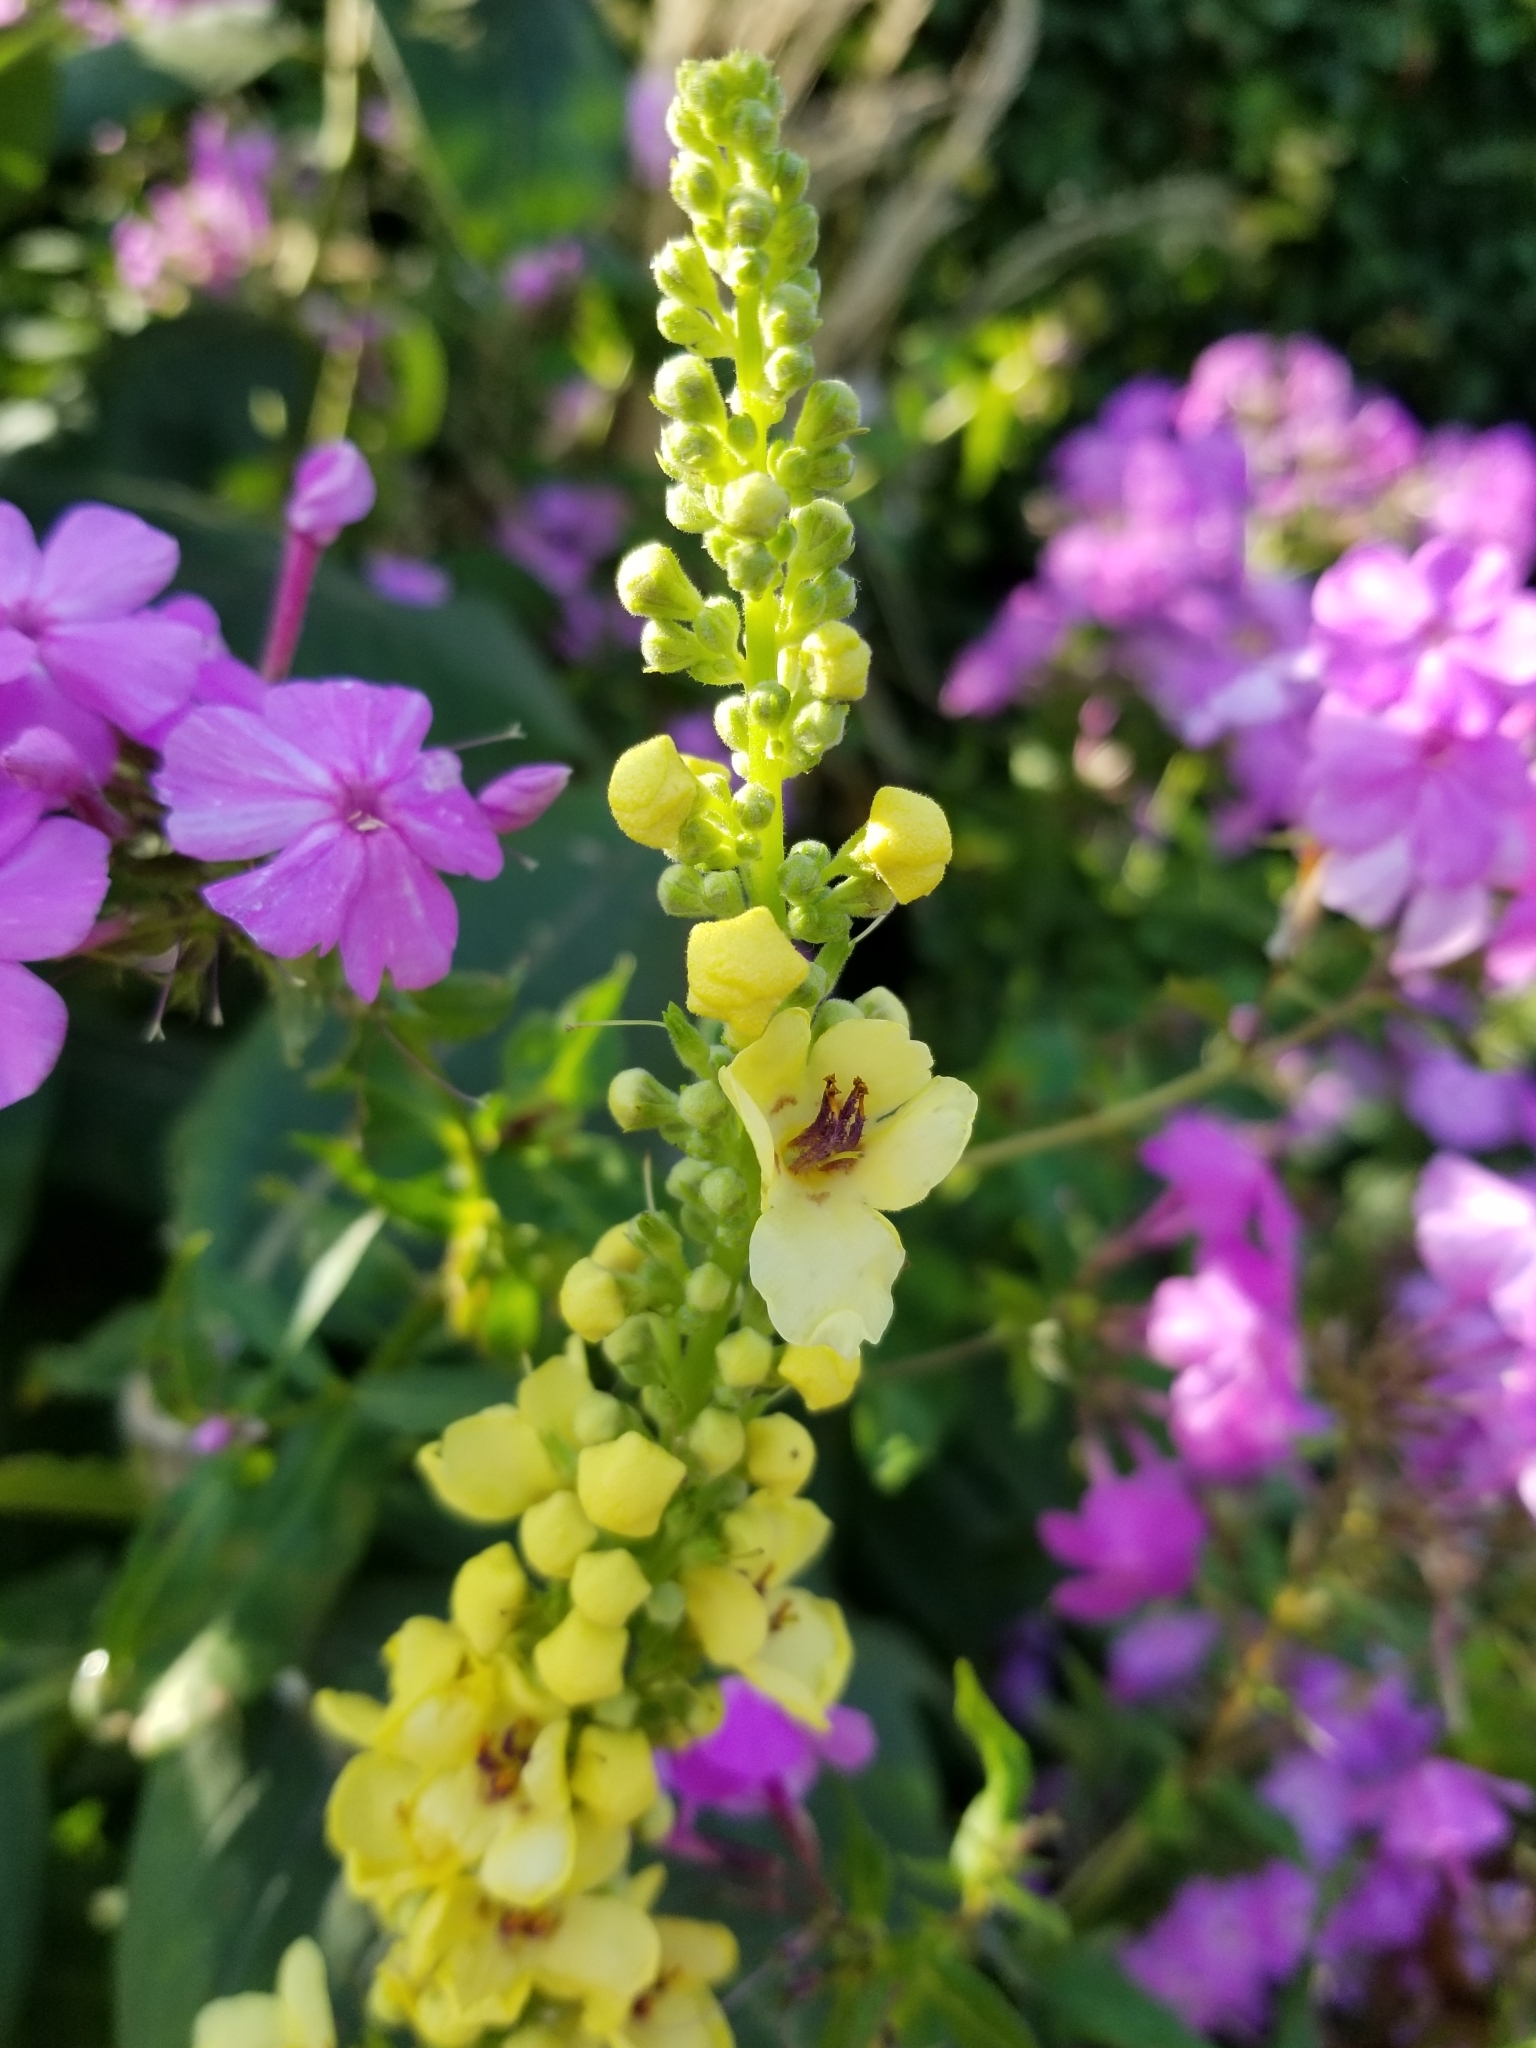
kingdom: Plantae
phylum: Tracheophyta
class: Magnoliopsida
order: Ericales
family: Polemoniaceae
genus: Phlox
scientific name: Phlox paniculata
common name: Fall phlox
